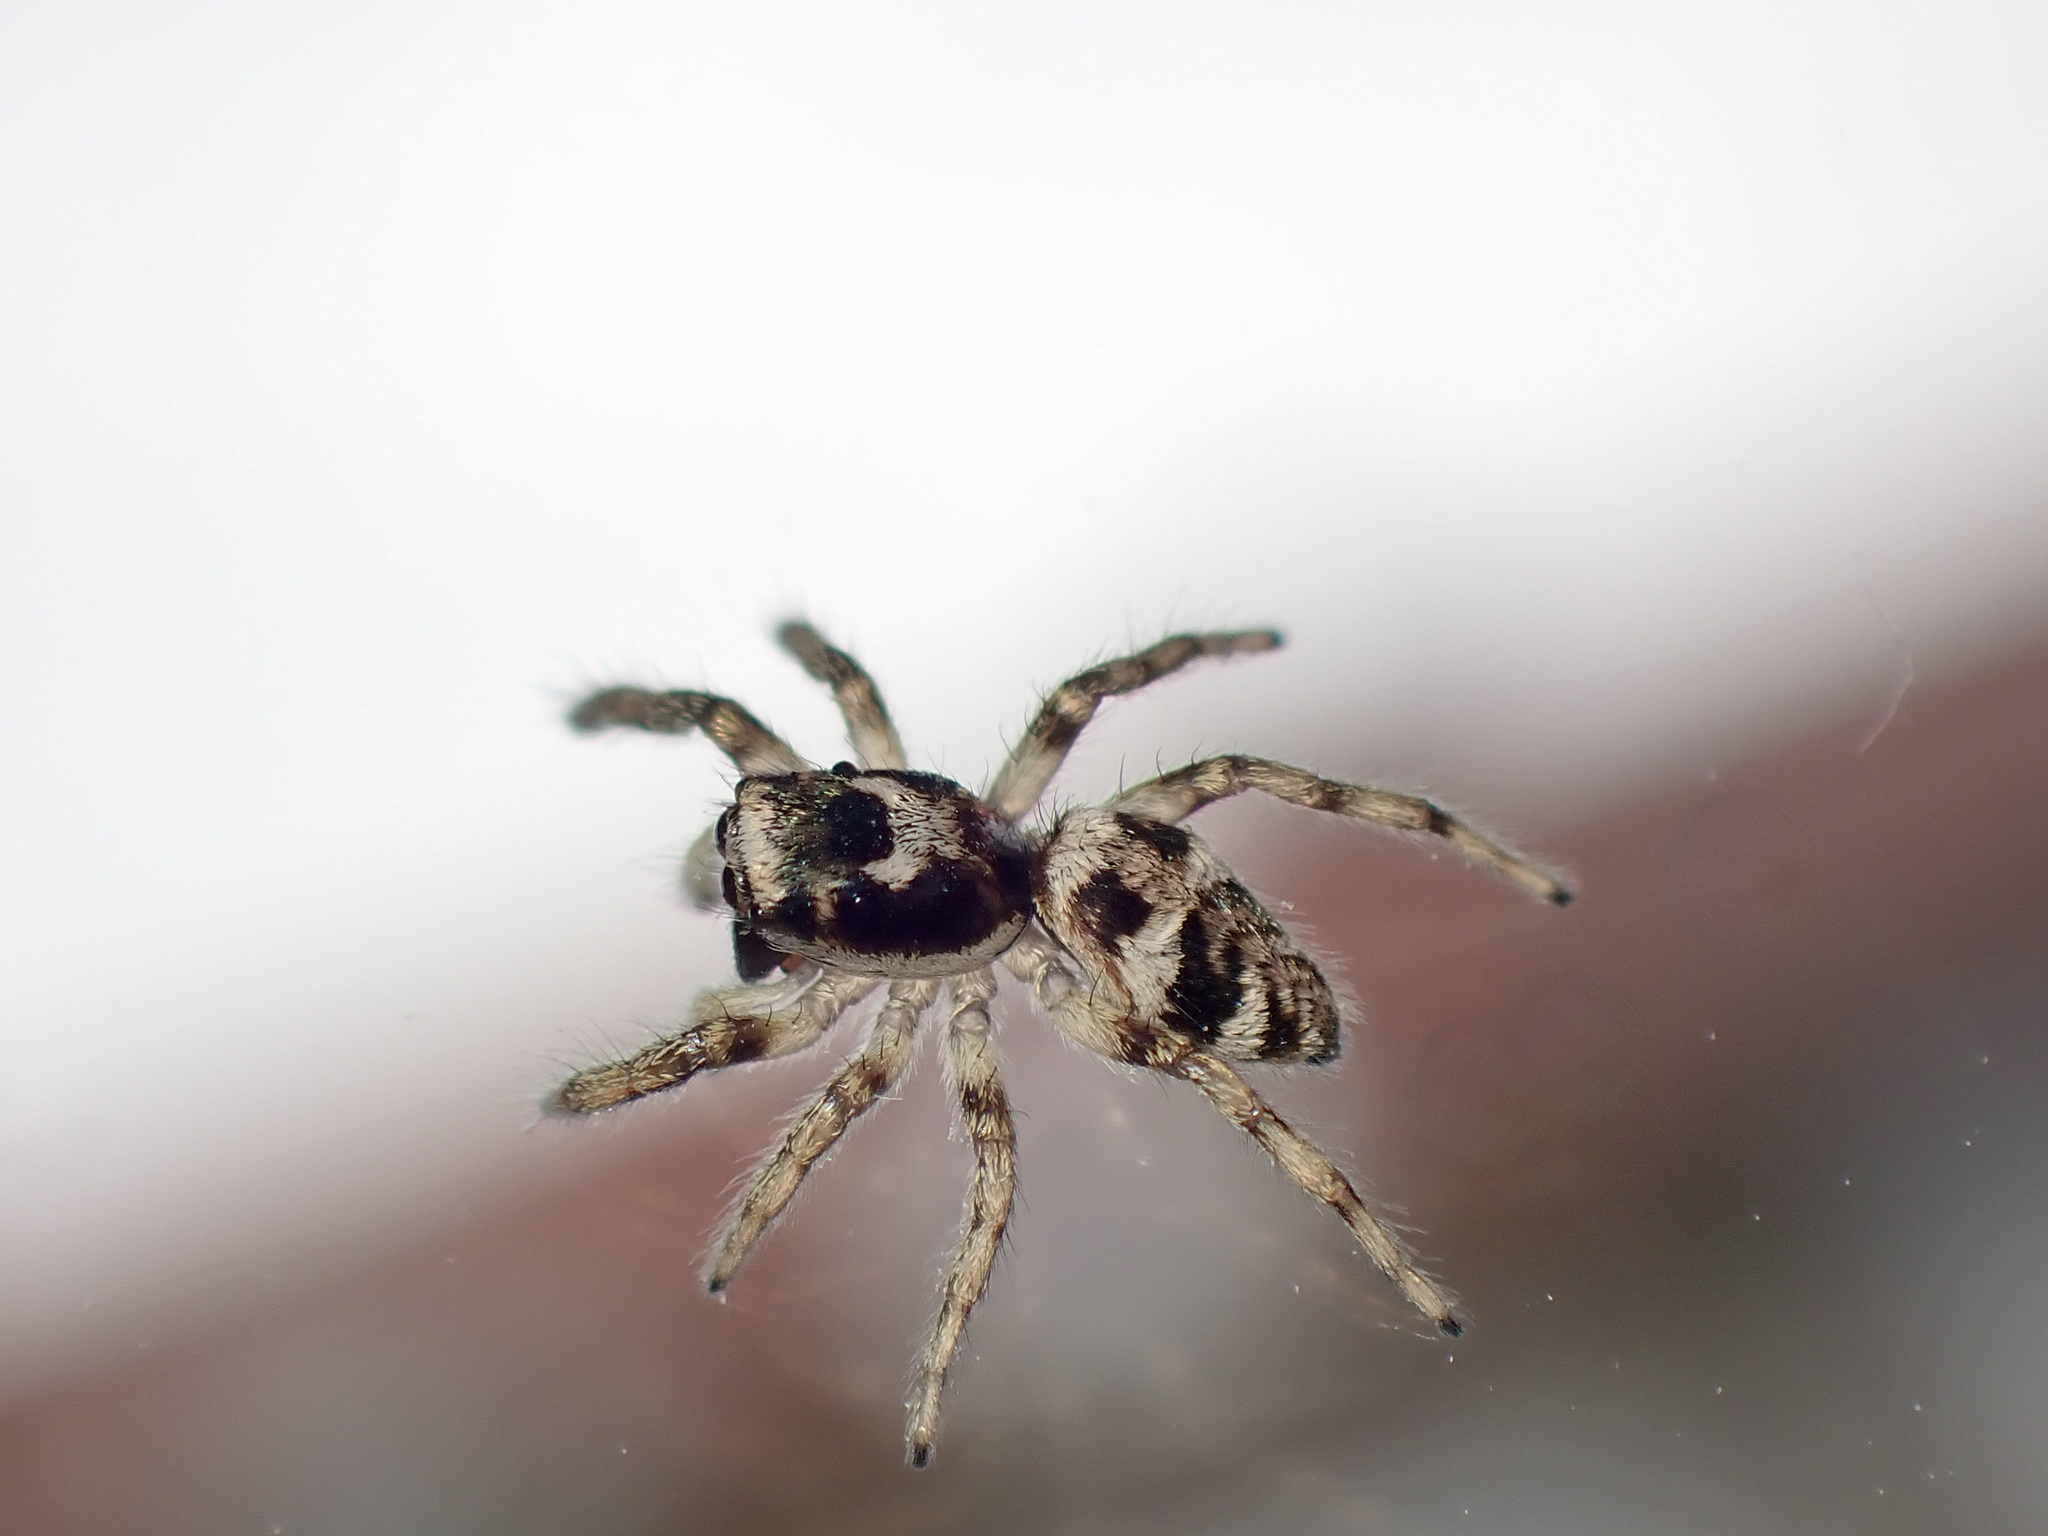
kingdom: Animalia
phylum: Arthropoda
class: Arachnida
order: Araneae
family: Salticidae
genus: Salticus
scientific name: Salticus scenicus
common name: Zebra jumper
